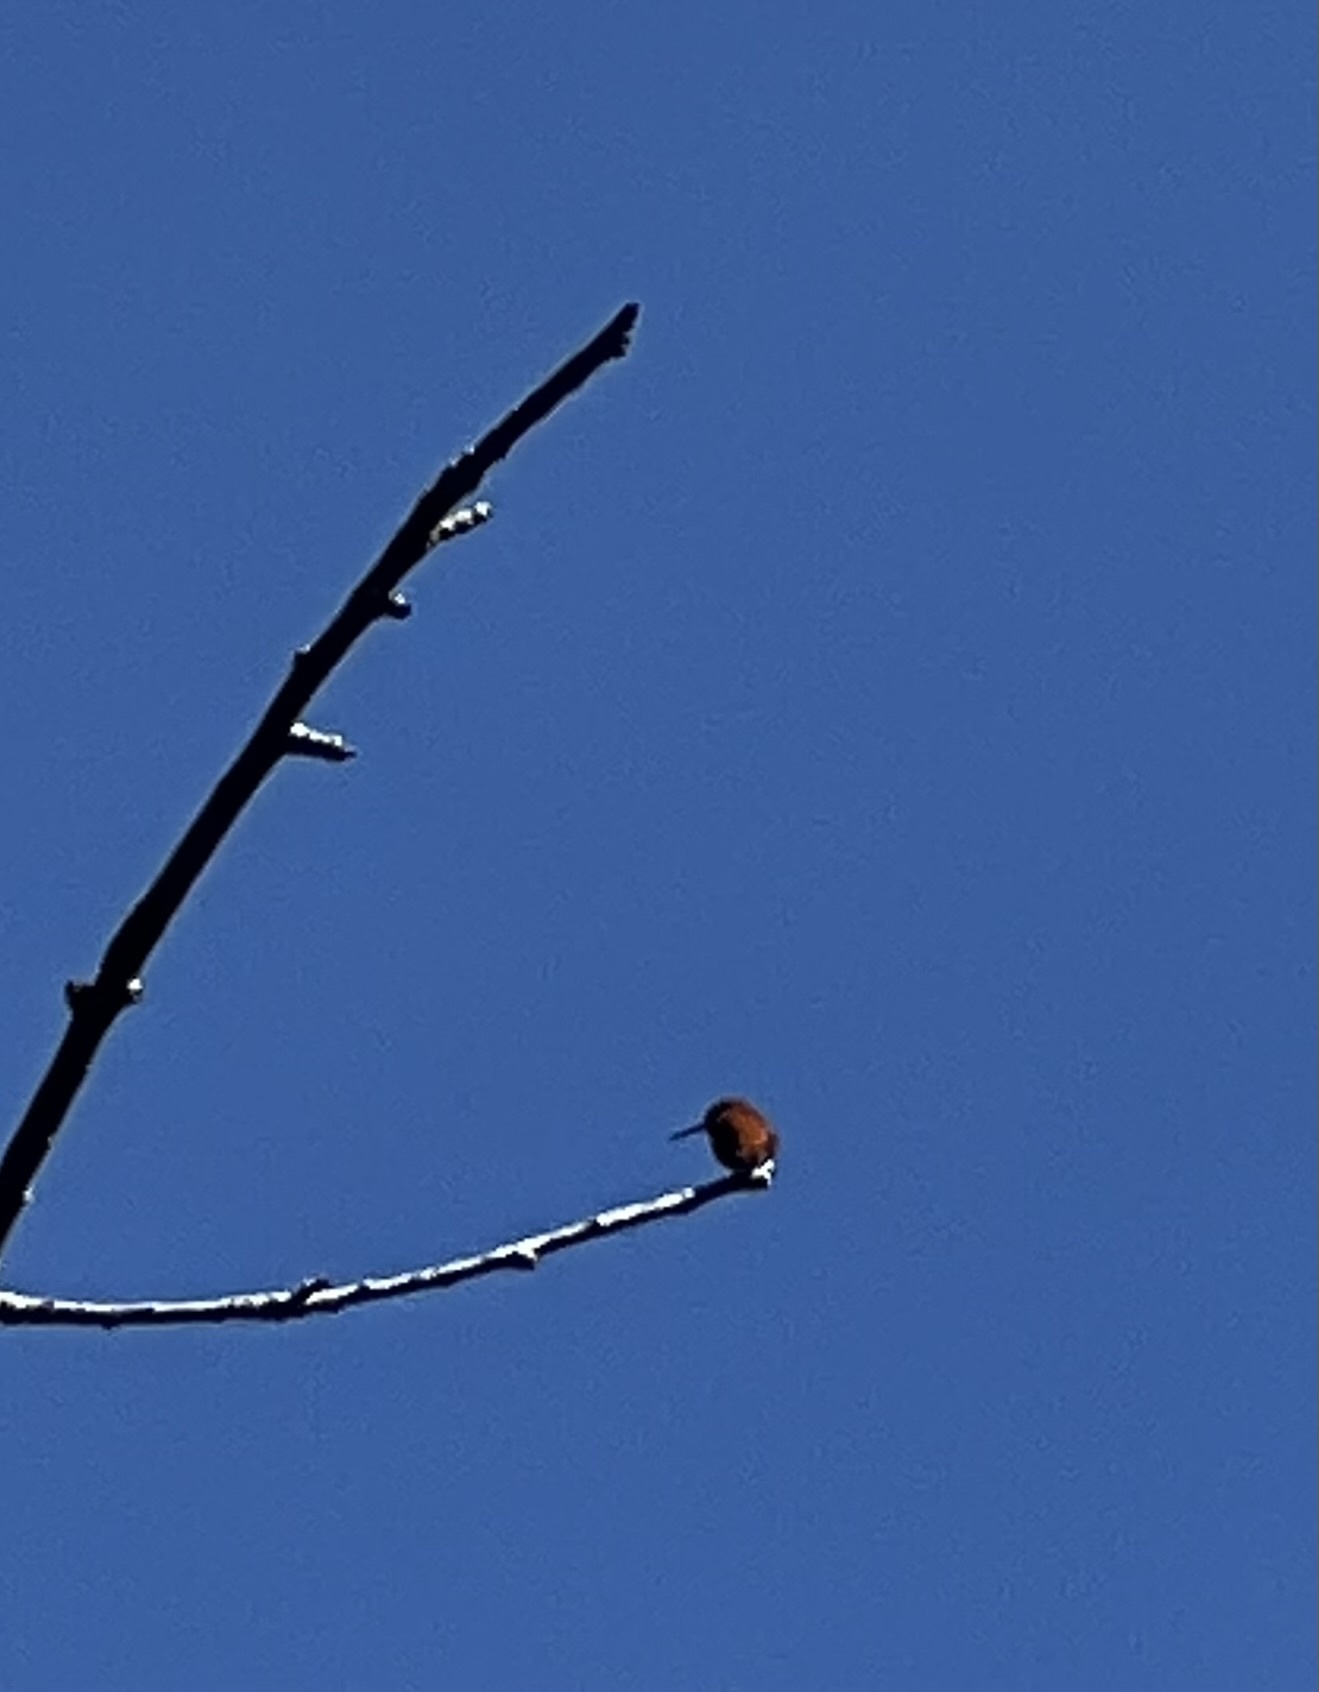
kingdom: Animalia
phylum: Chordata
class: Aves
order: Apodiformes
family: Trochilidae
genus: Selasphorus
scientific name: Selasphorus rufus
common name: Rufous hummingbird
